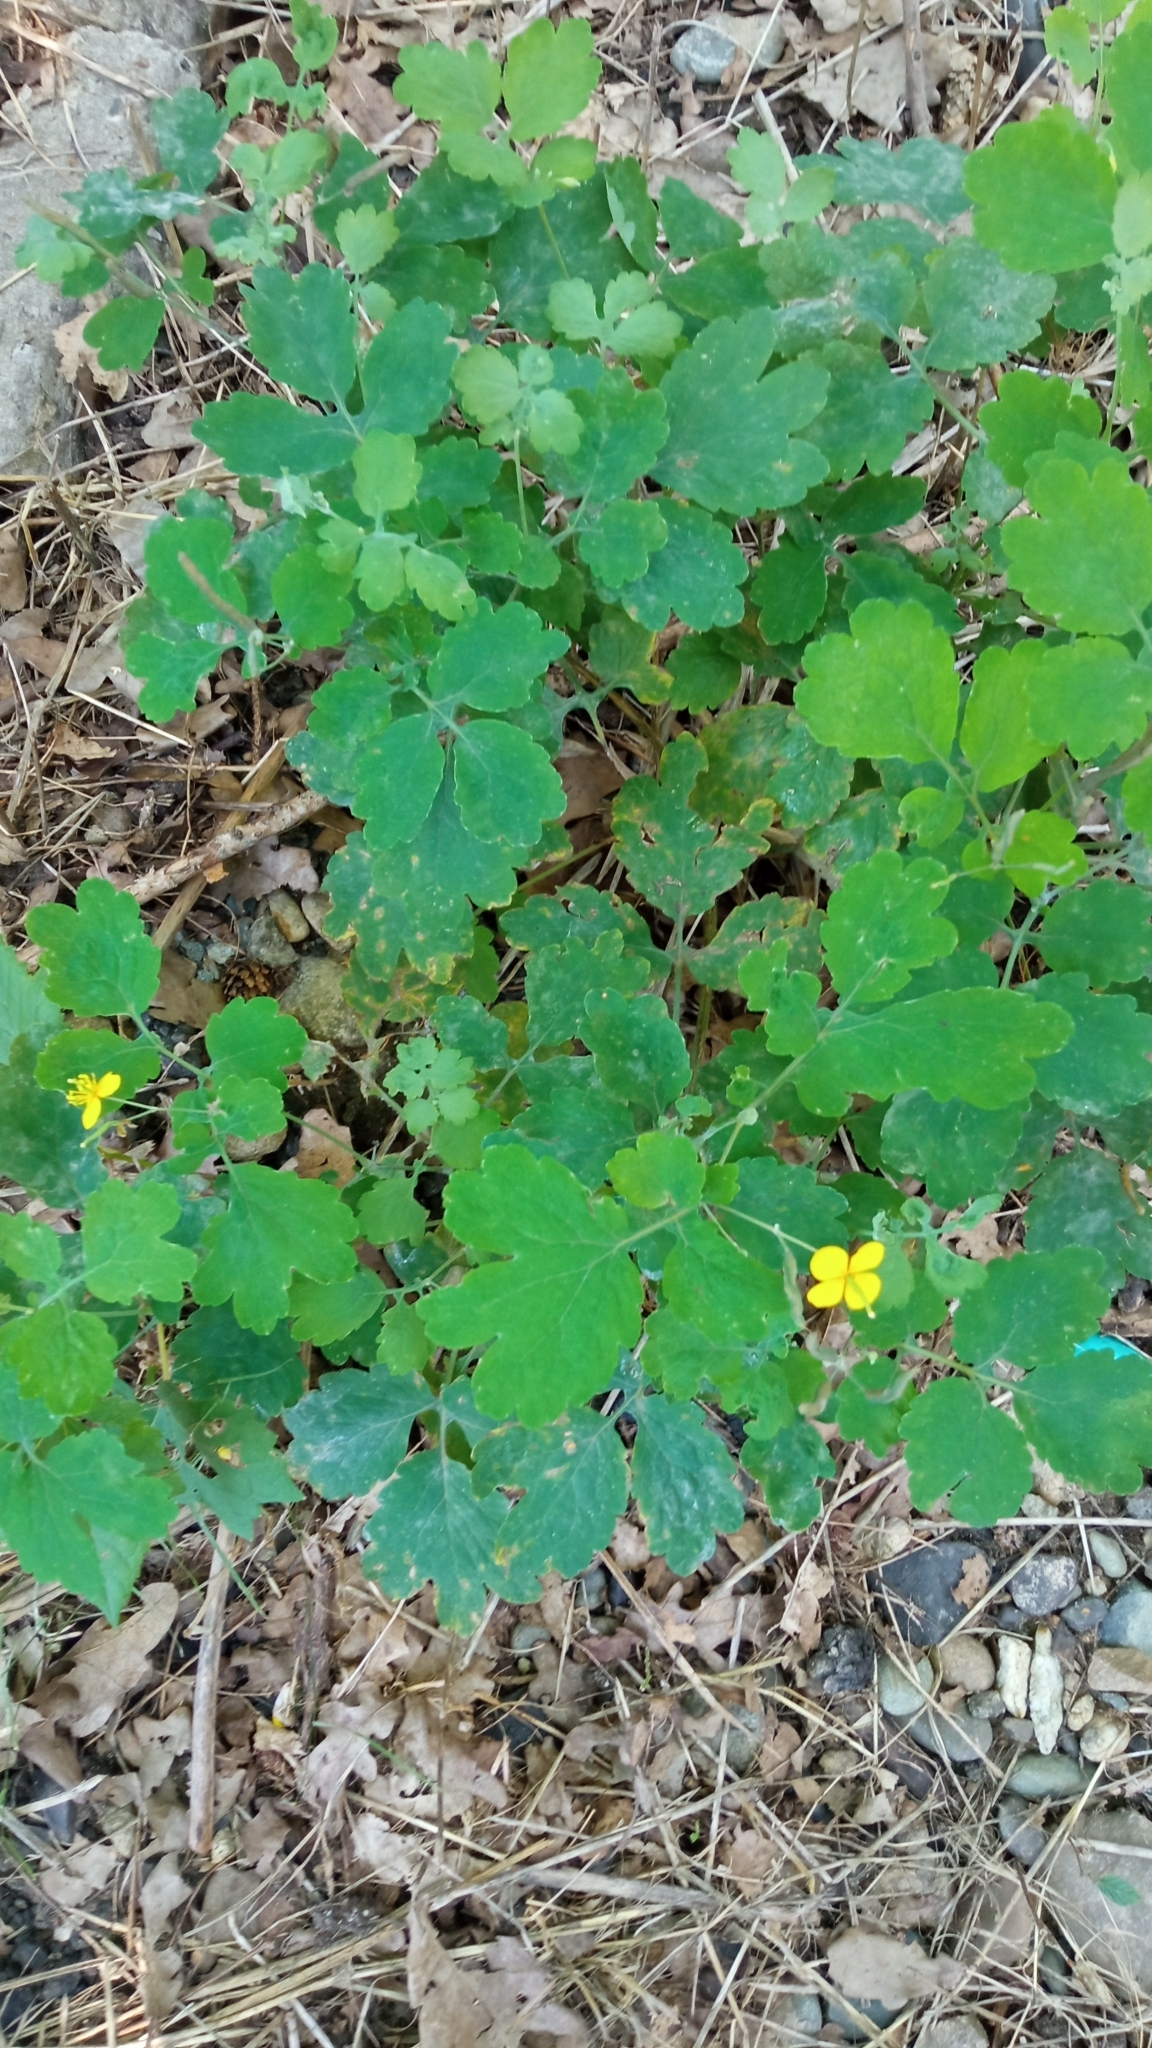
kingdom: Plantae
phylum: Tracheophyta
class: Magnoliopsida
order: Ranunculales
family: Papaveraceae
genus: Chelidonium
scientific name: Chelidonium majus
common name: Greater celandine
